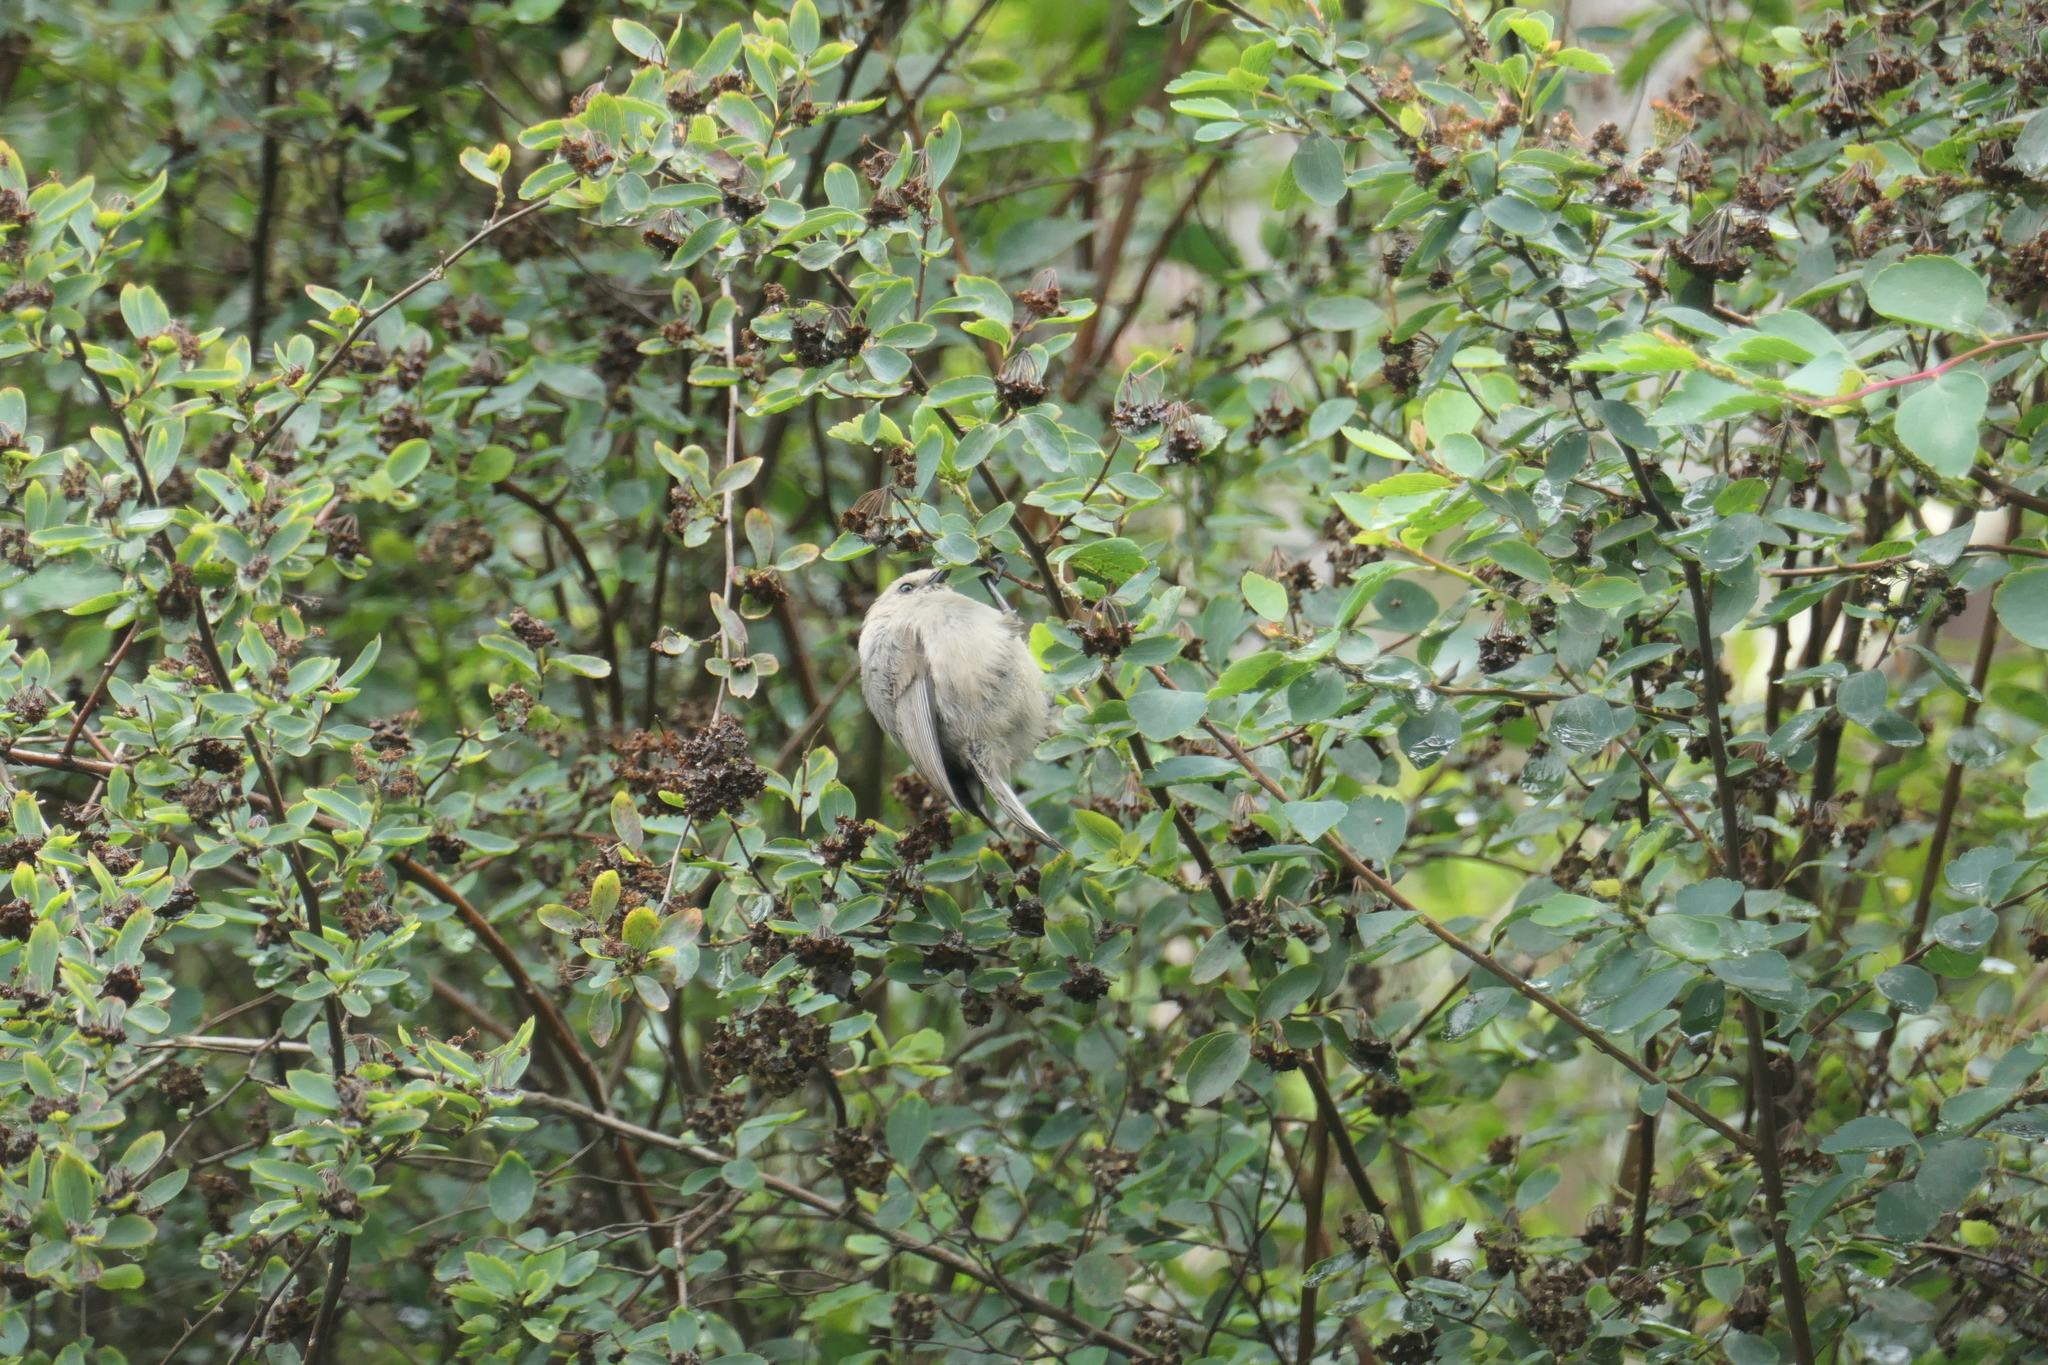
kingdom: Animalia
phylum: Chordata
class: Aves
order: Passeriformes
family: Aegithalidae
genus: Psaltriparus
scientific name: Psaltriparus minimus
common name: American bushtit
